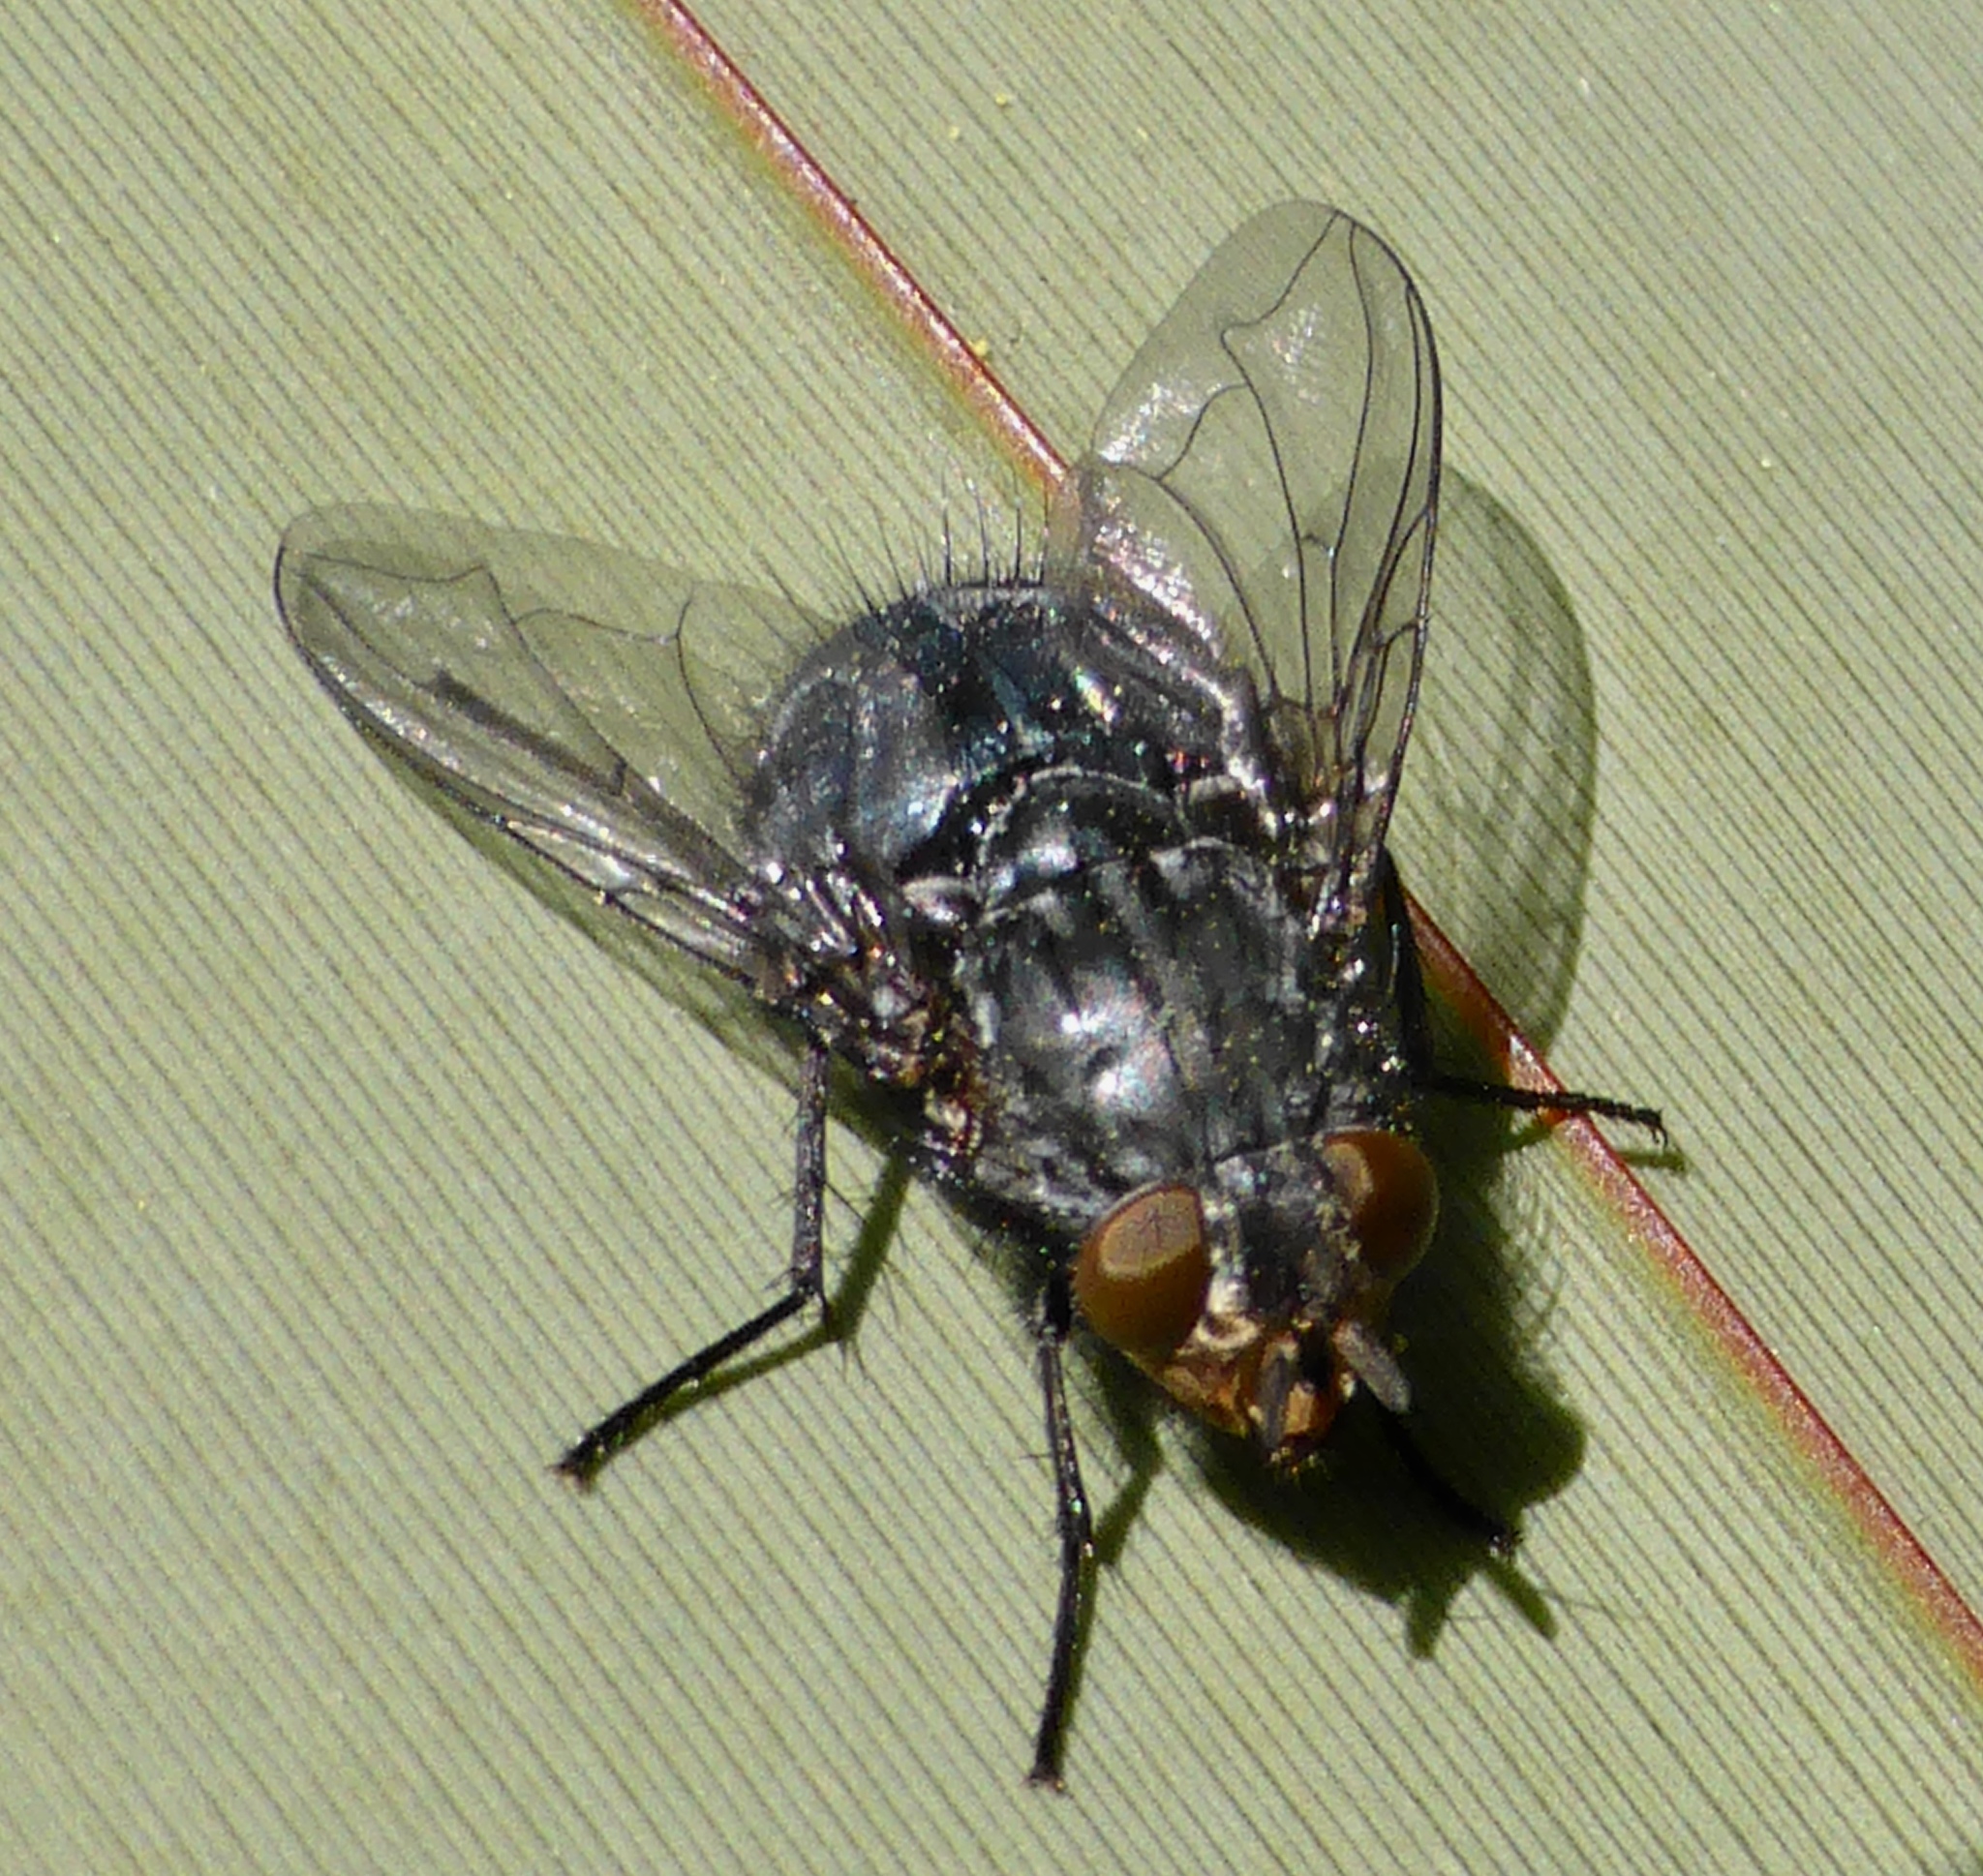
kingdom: Animalia
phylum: Arthropoda
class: Insecta
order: Diptera
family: Calliphoridae
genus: Calliphora
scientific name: Calliphora vicina
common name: Common blow flie
